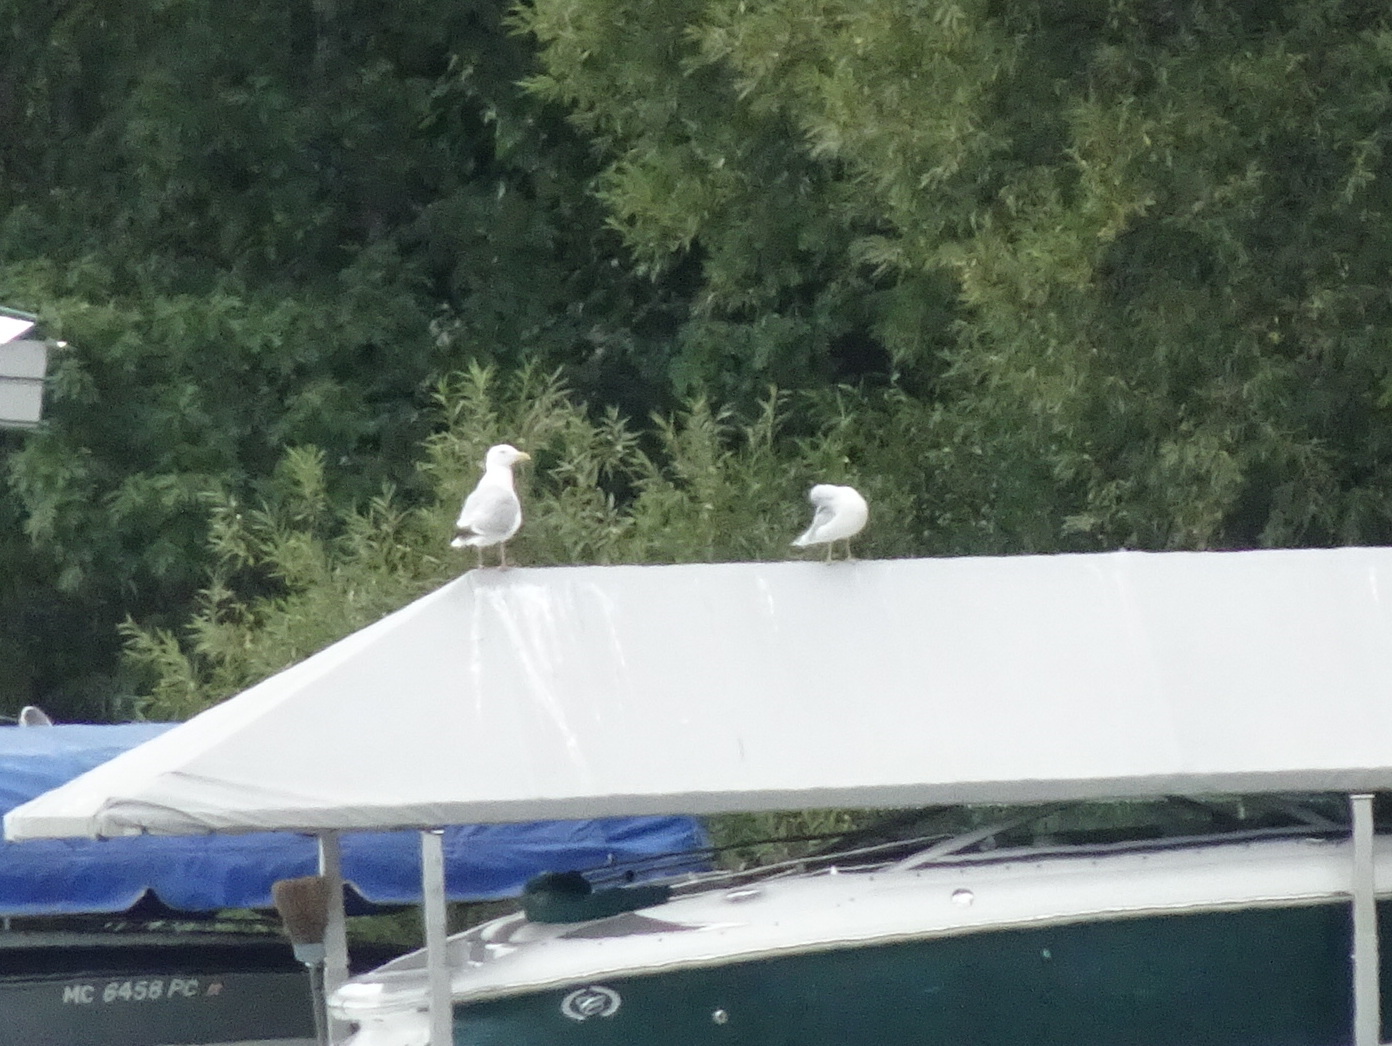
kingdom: Animalia
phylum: Chordata
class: Aves
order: Charadriiformes
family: Laridae
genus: Larus
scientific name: Larus argentatus
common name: Herring gull
